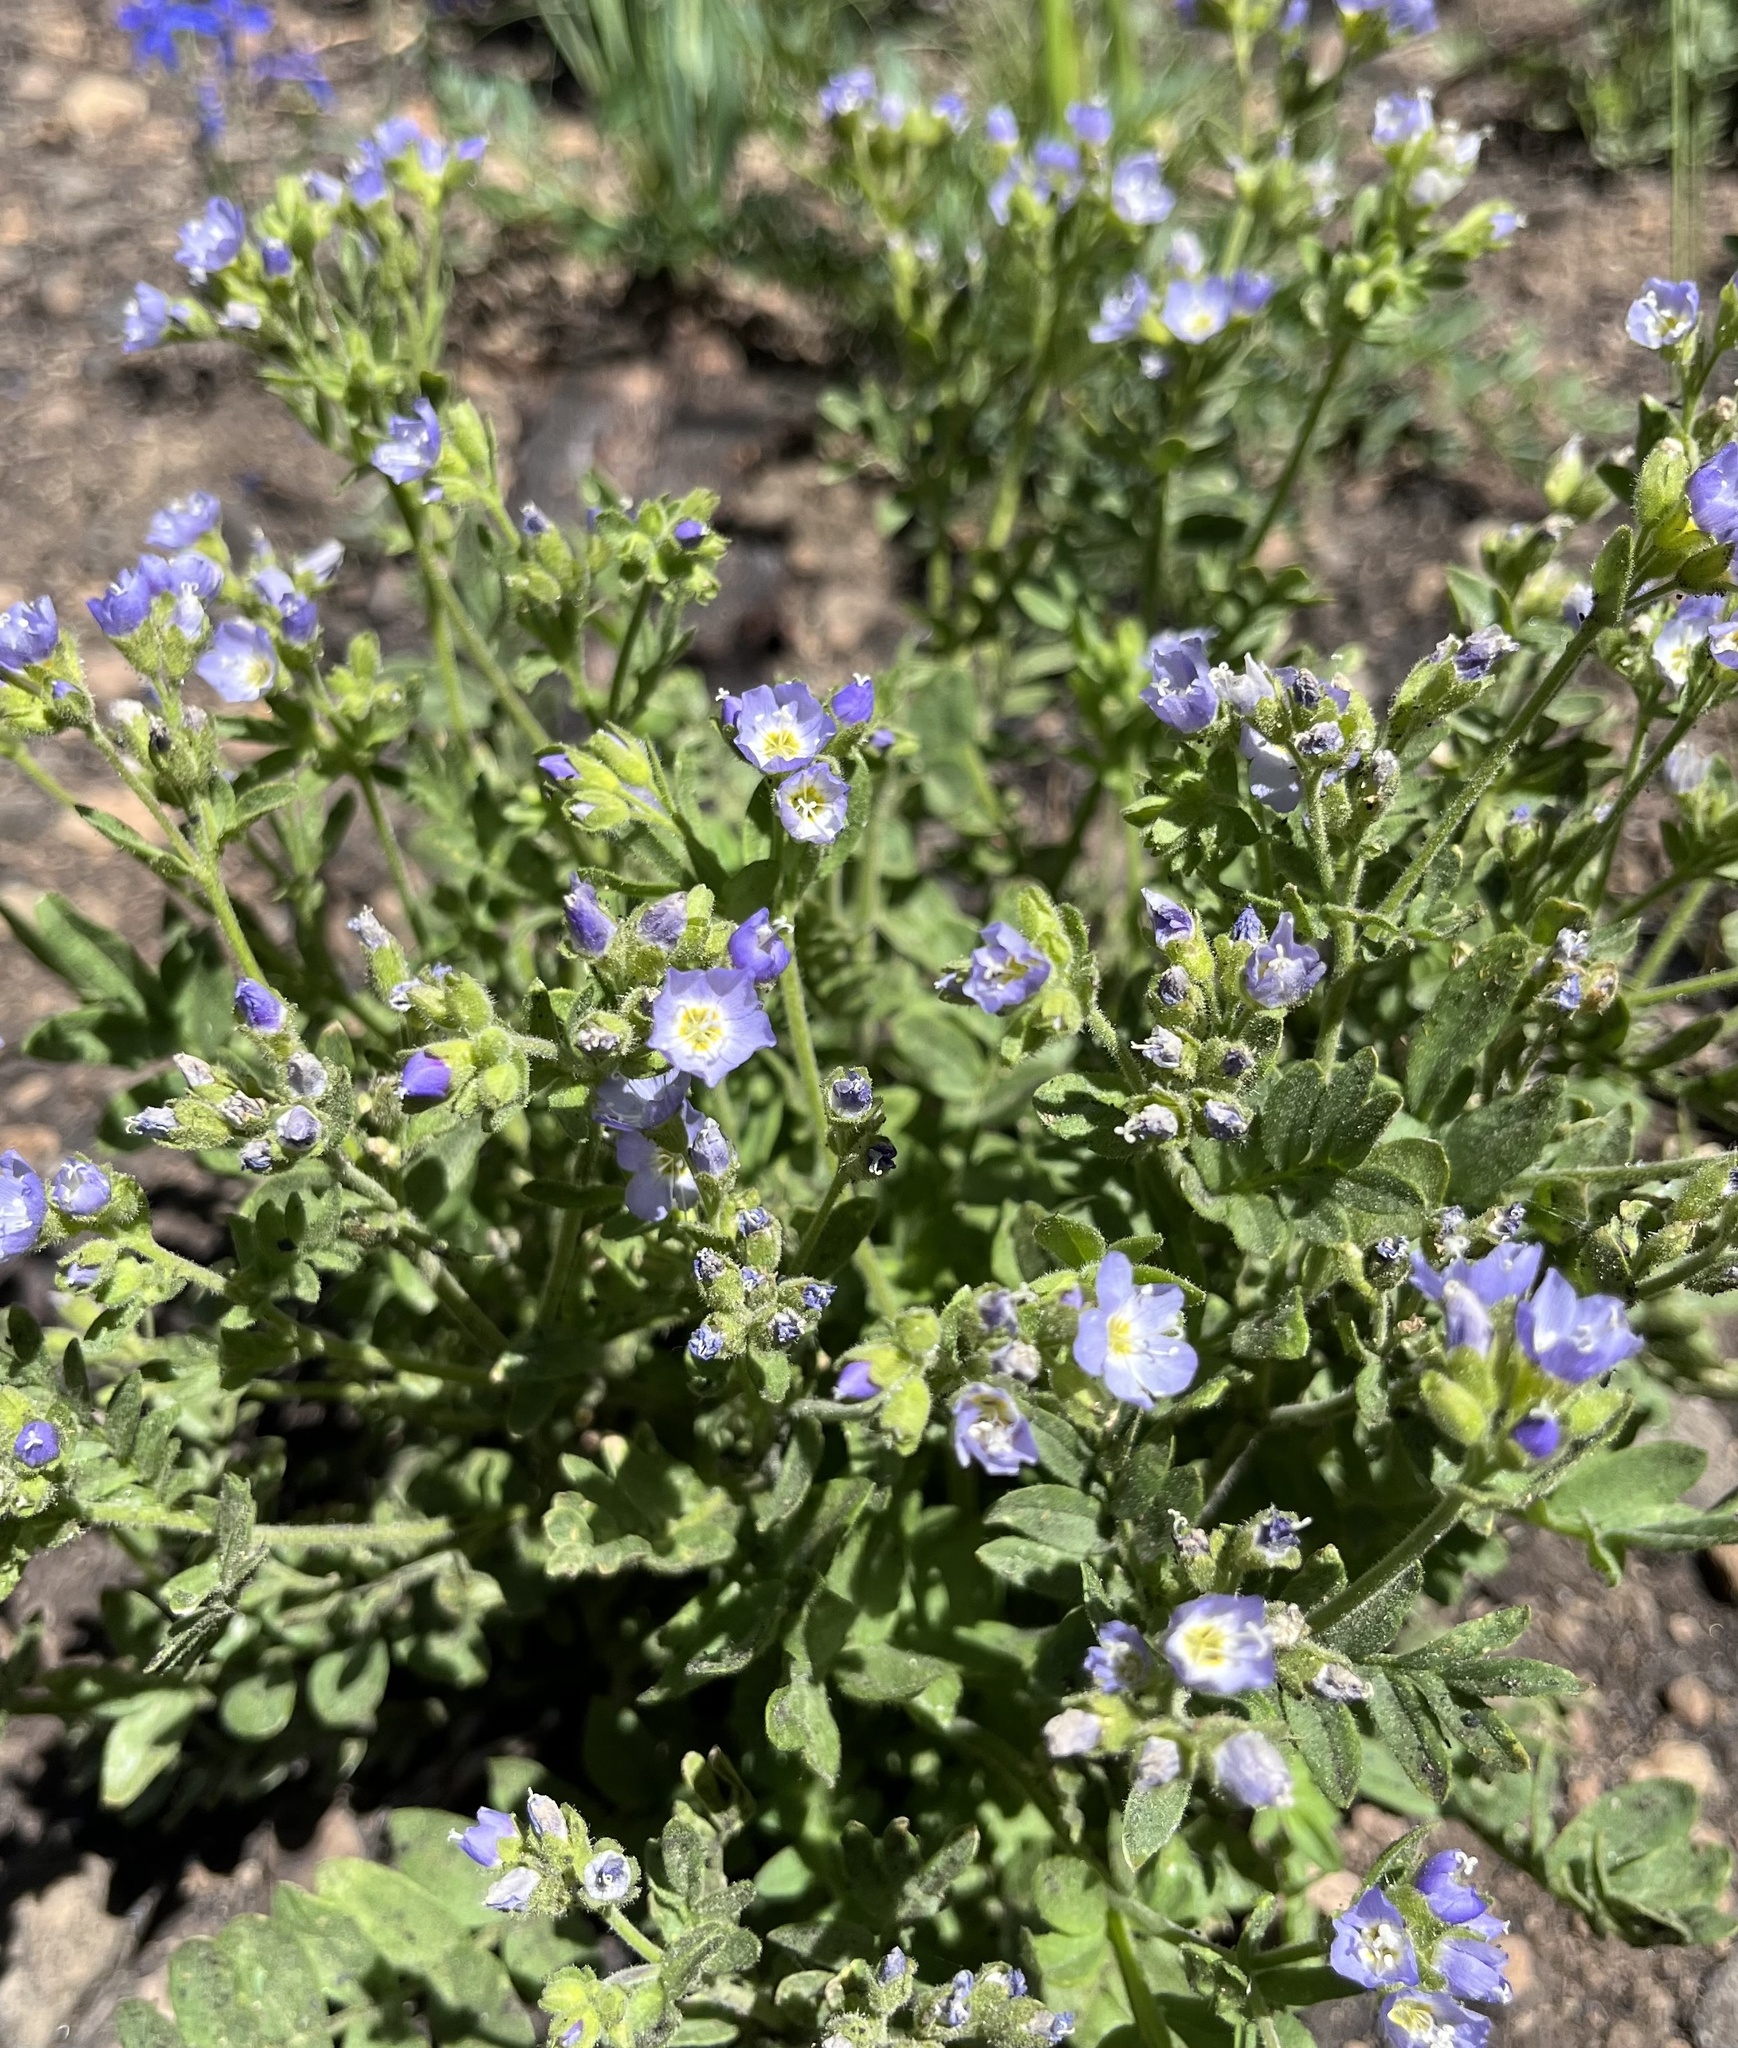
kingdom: Plantae
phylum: Tracheophyta
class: Magnoliopsida
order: Ericales
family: Polemoniaceae
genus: Polemonium
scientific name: Polemonium californicum
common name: California jacob's ladder
